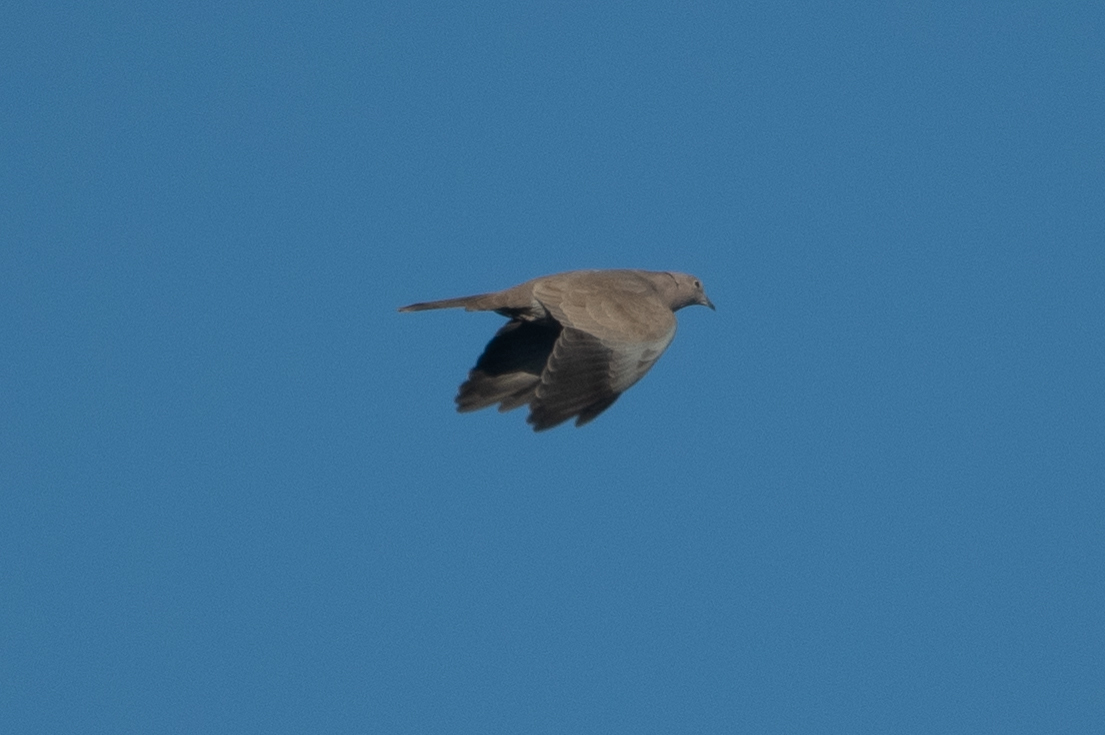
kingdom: Animalia
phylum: Chordata
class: Aves
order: Columbiformes
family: Columbidae
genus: Streptopelia
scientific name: Streptopelia decaocto
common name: Eurasian collared dove
